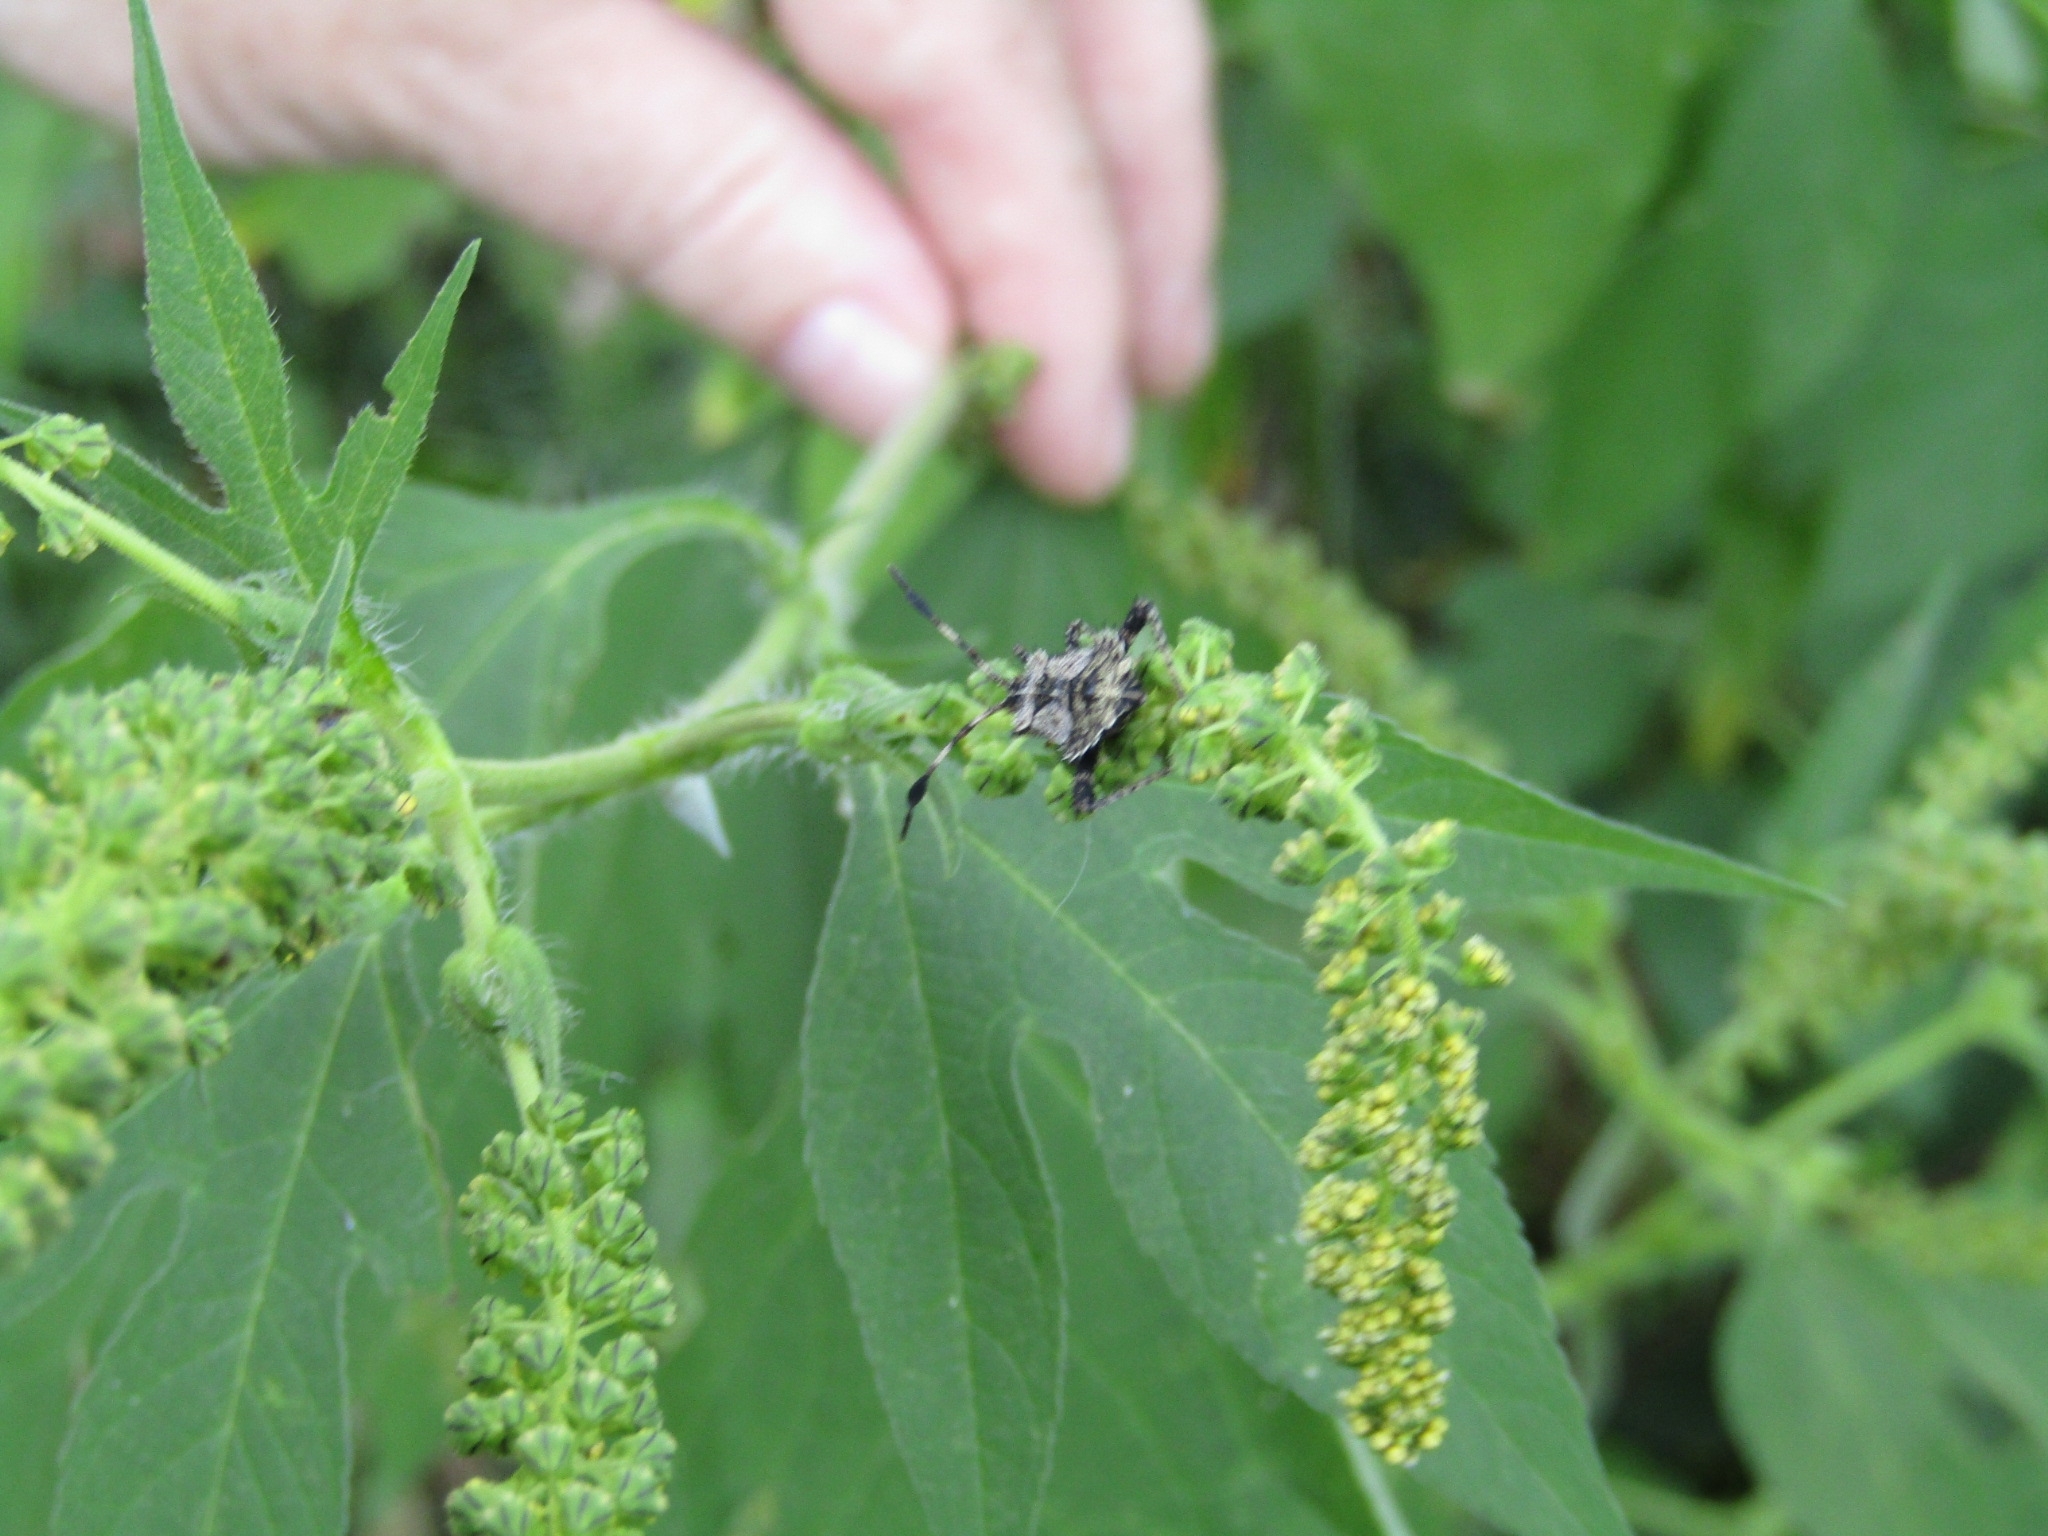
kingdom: Animalia
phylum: Arthropoda
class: Insecta
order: Hemiptera
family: Coreidae
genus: Euthochtha
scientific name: Euthochtha galeator
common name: Helmeted squash bug
